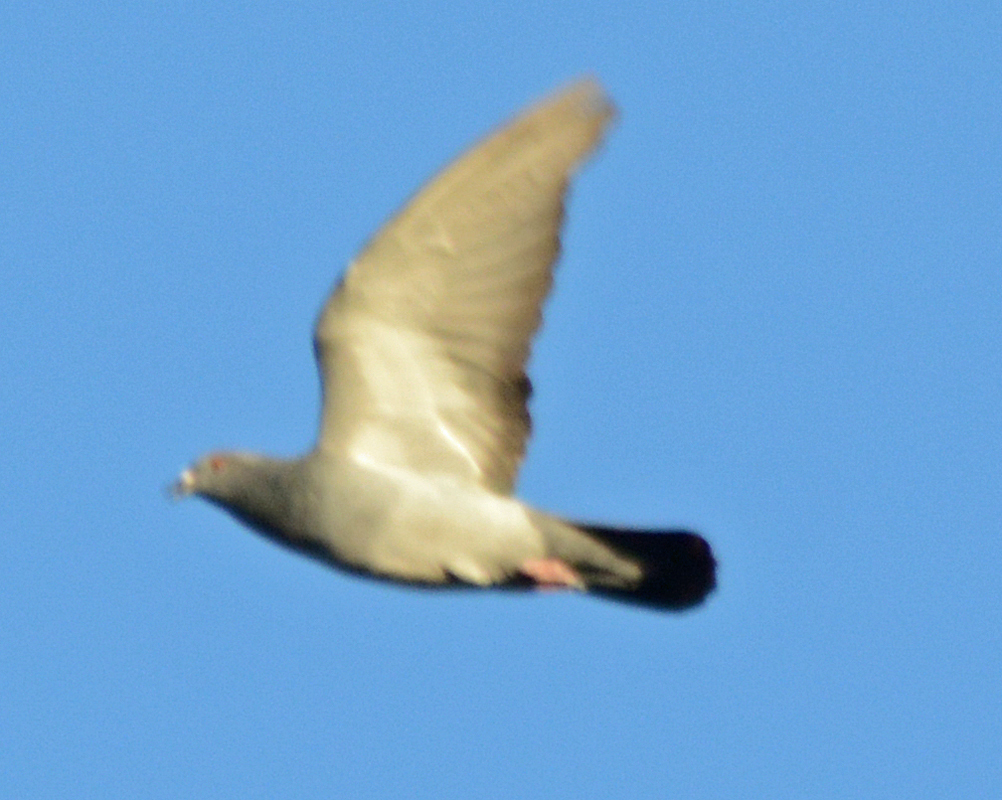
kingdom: Animalia
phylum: Chordata
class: Aves
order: Columbiformes
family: Columbidae
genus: Columba
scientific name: Columba livia
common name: Rock pigeon
